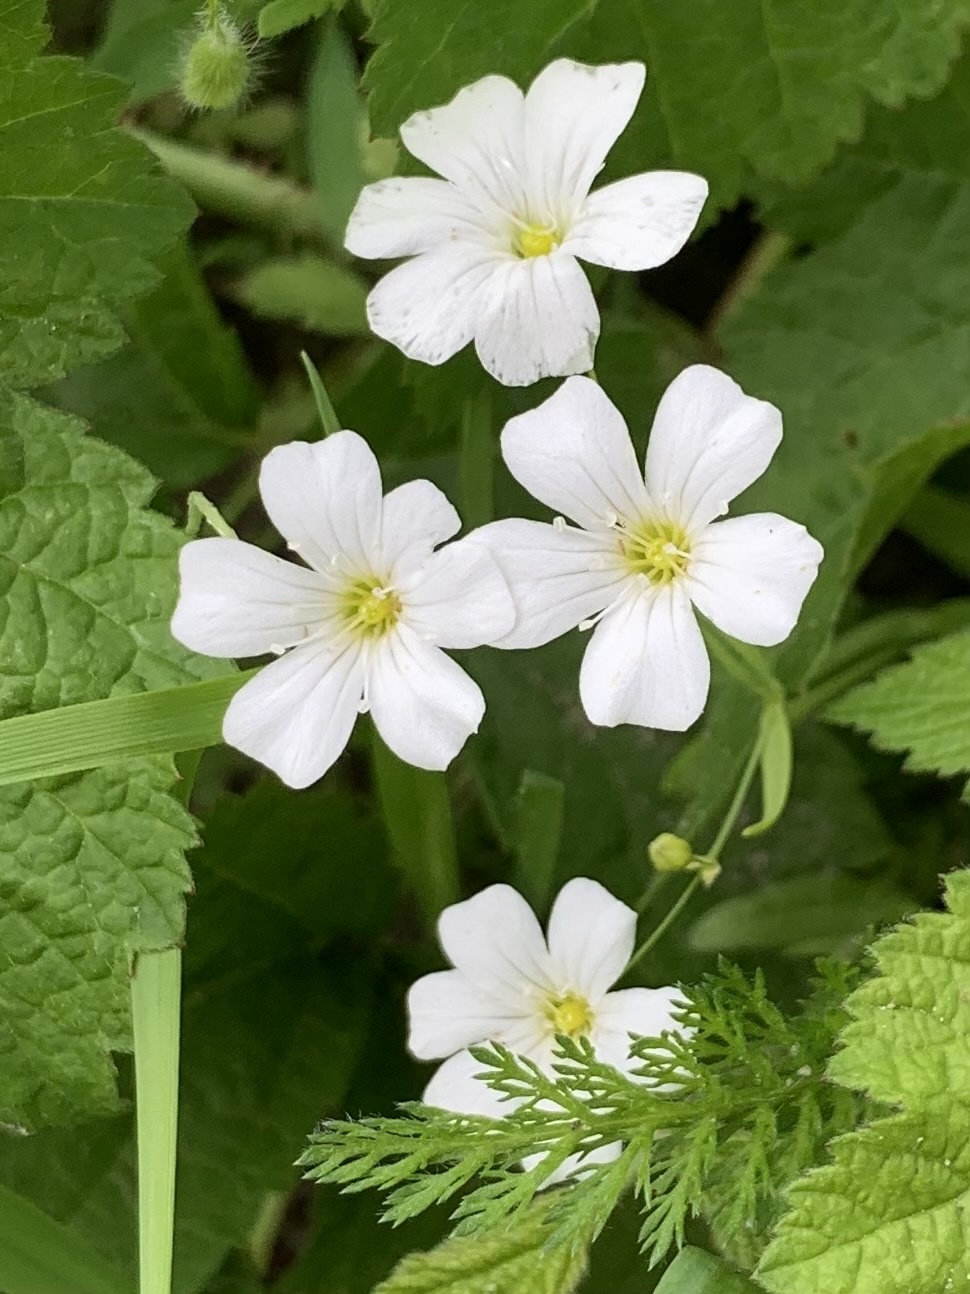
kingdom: Plantae
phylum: Tracheophyta
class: Magnoliopsida
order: Caryophyllales
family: Caryophyllaceae
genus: Rabelera
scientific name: Rabelera holostea
